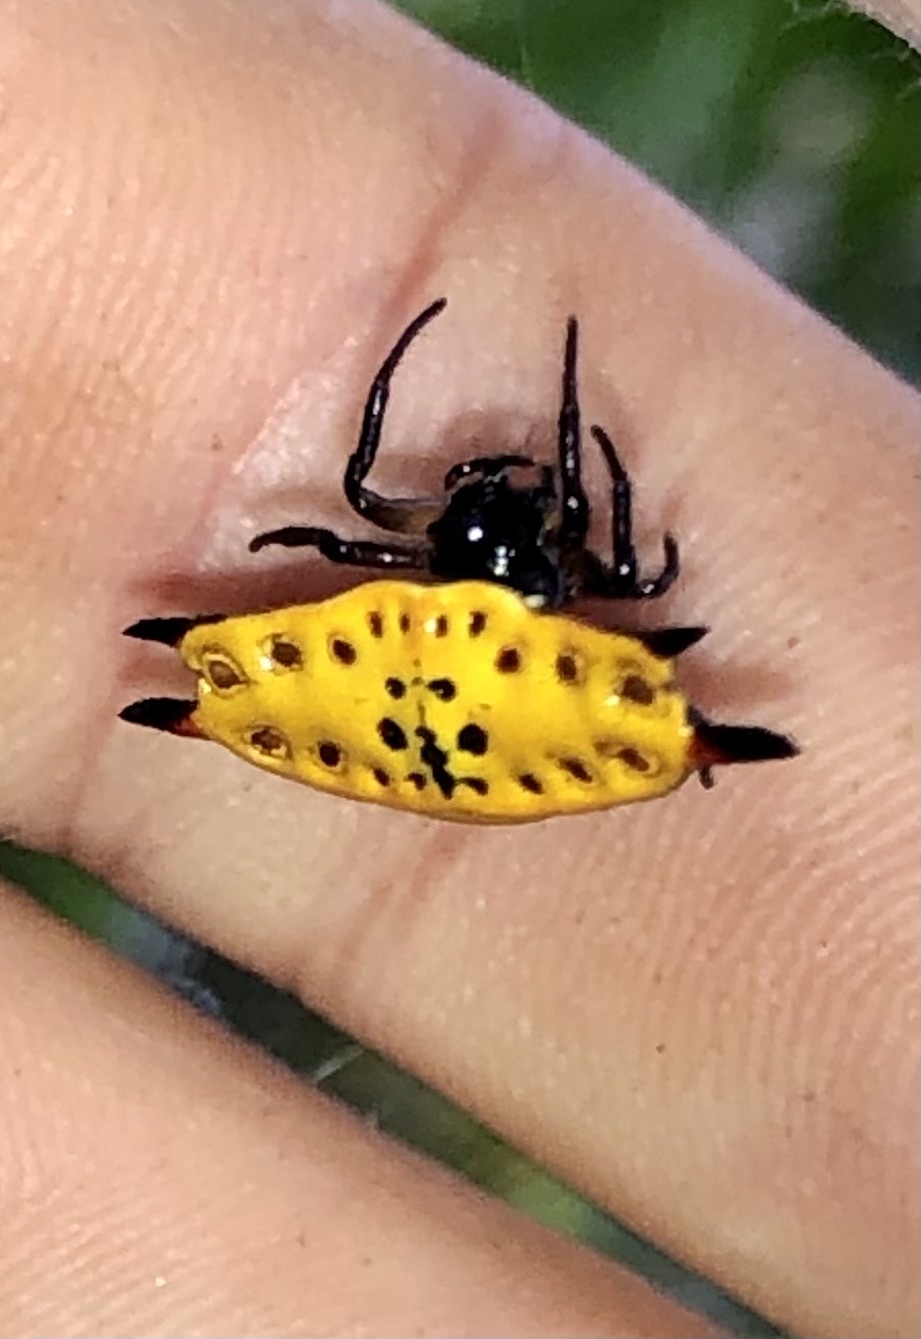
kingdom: Animalia
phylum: Arthropoda
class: Arachnida
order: Araneae
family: Araneidae
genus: Gasteracantha
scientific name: Gasteracantha quadrispinosa
